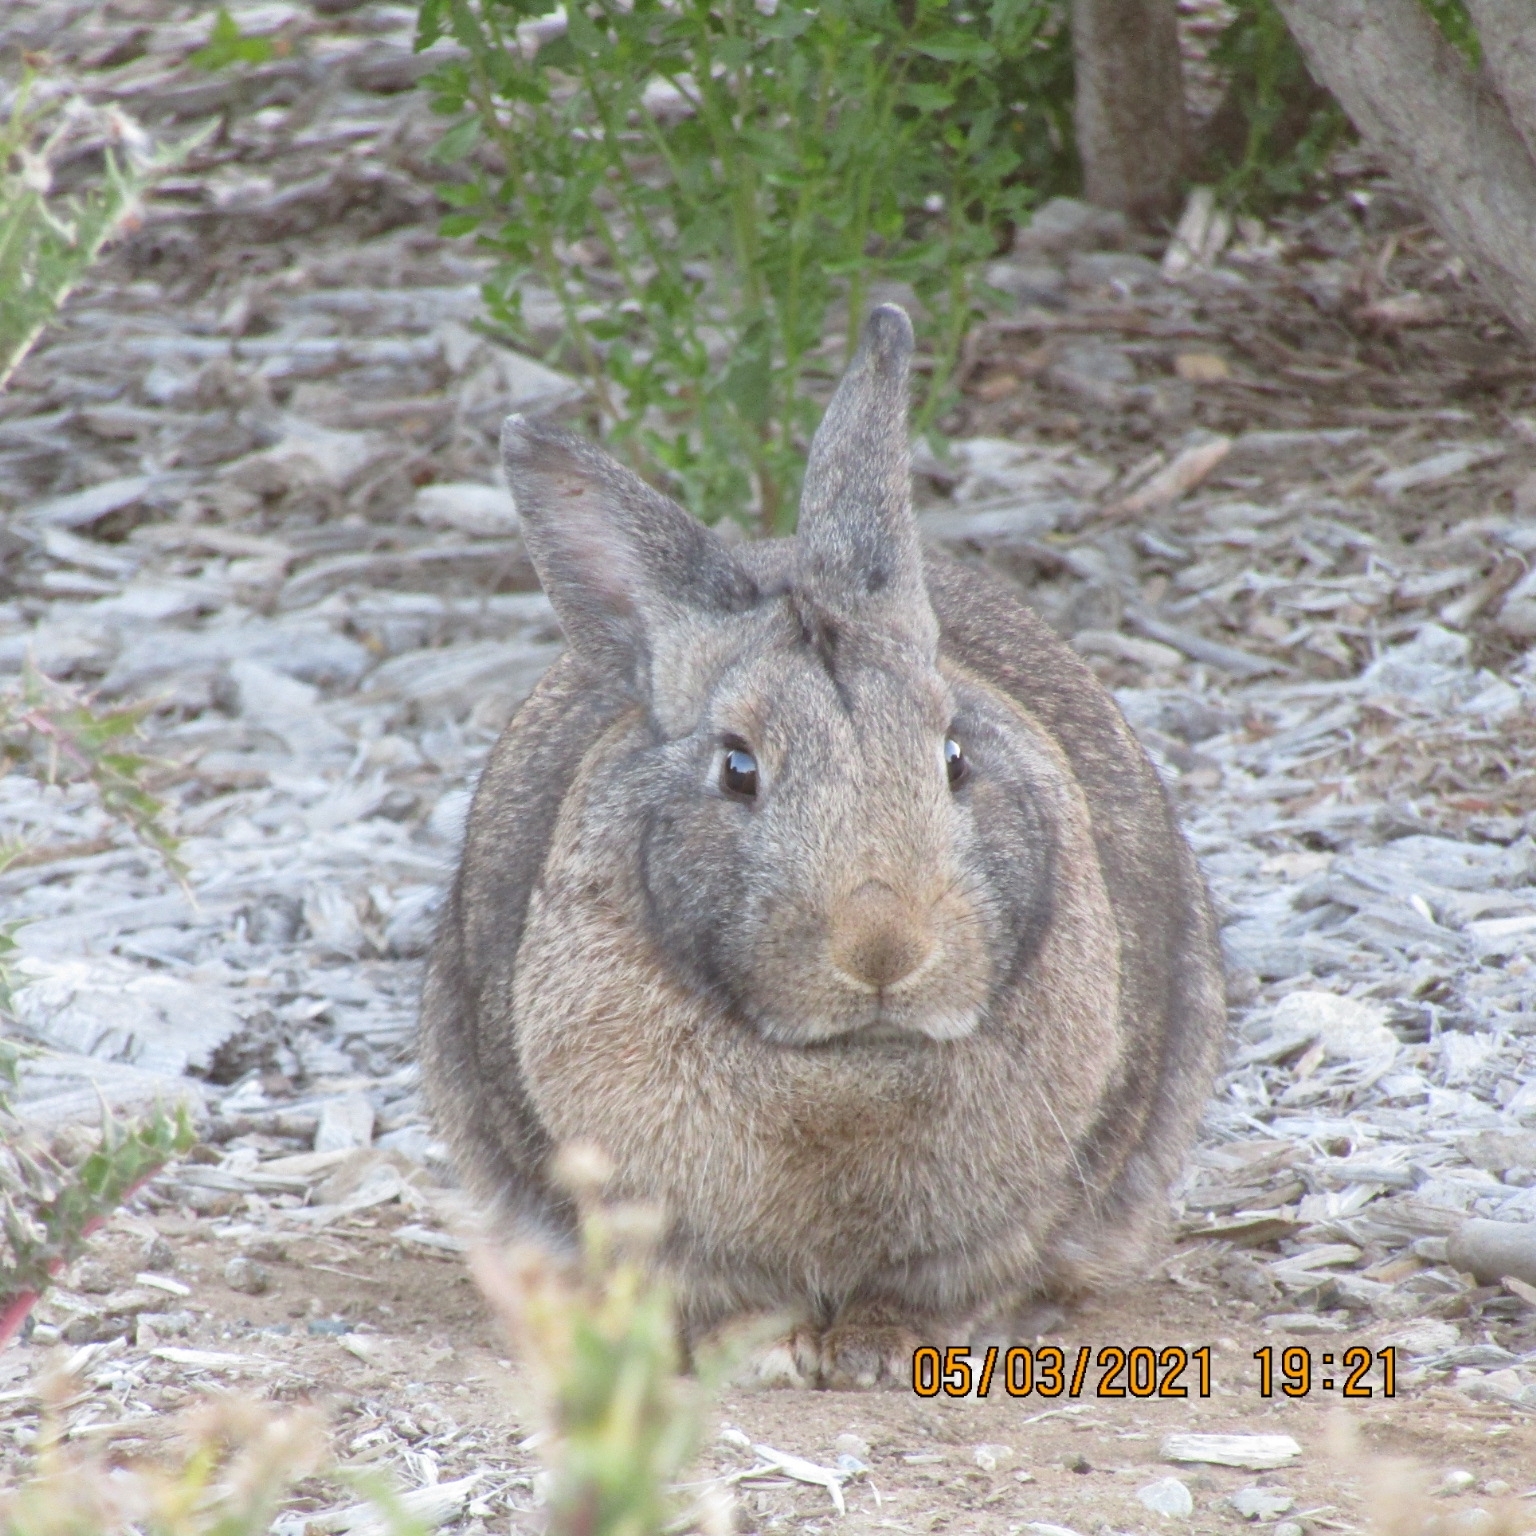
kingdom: Animalia
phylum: Chordata
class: Mammalia
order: Lagomorpha
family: Leporidae
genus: Oryctolagus
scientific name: Oryctolagus cuniculus
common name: European rabbit
